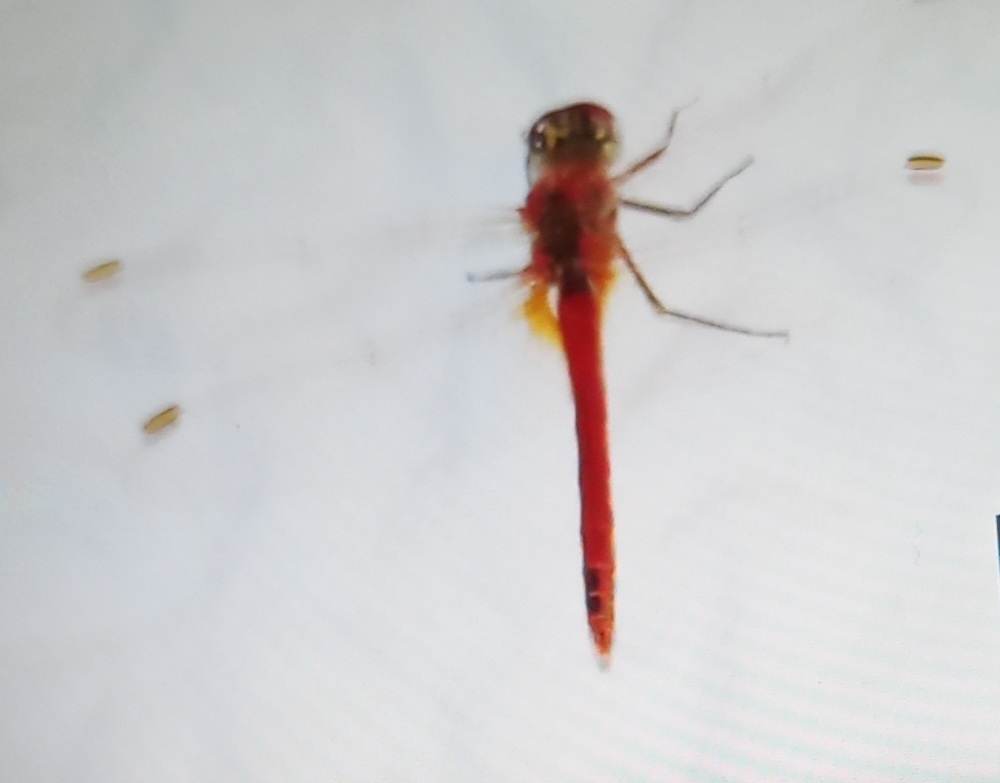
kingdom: Animalia
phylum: Arthropoda
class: Insecta
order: Odonata
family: Libellulidae
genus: Sympetrum
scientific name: Sympetrum fonscolombii
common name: Red-veined darter
